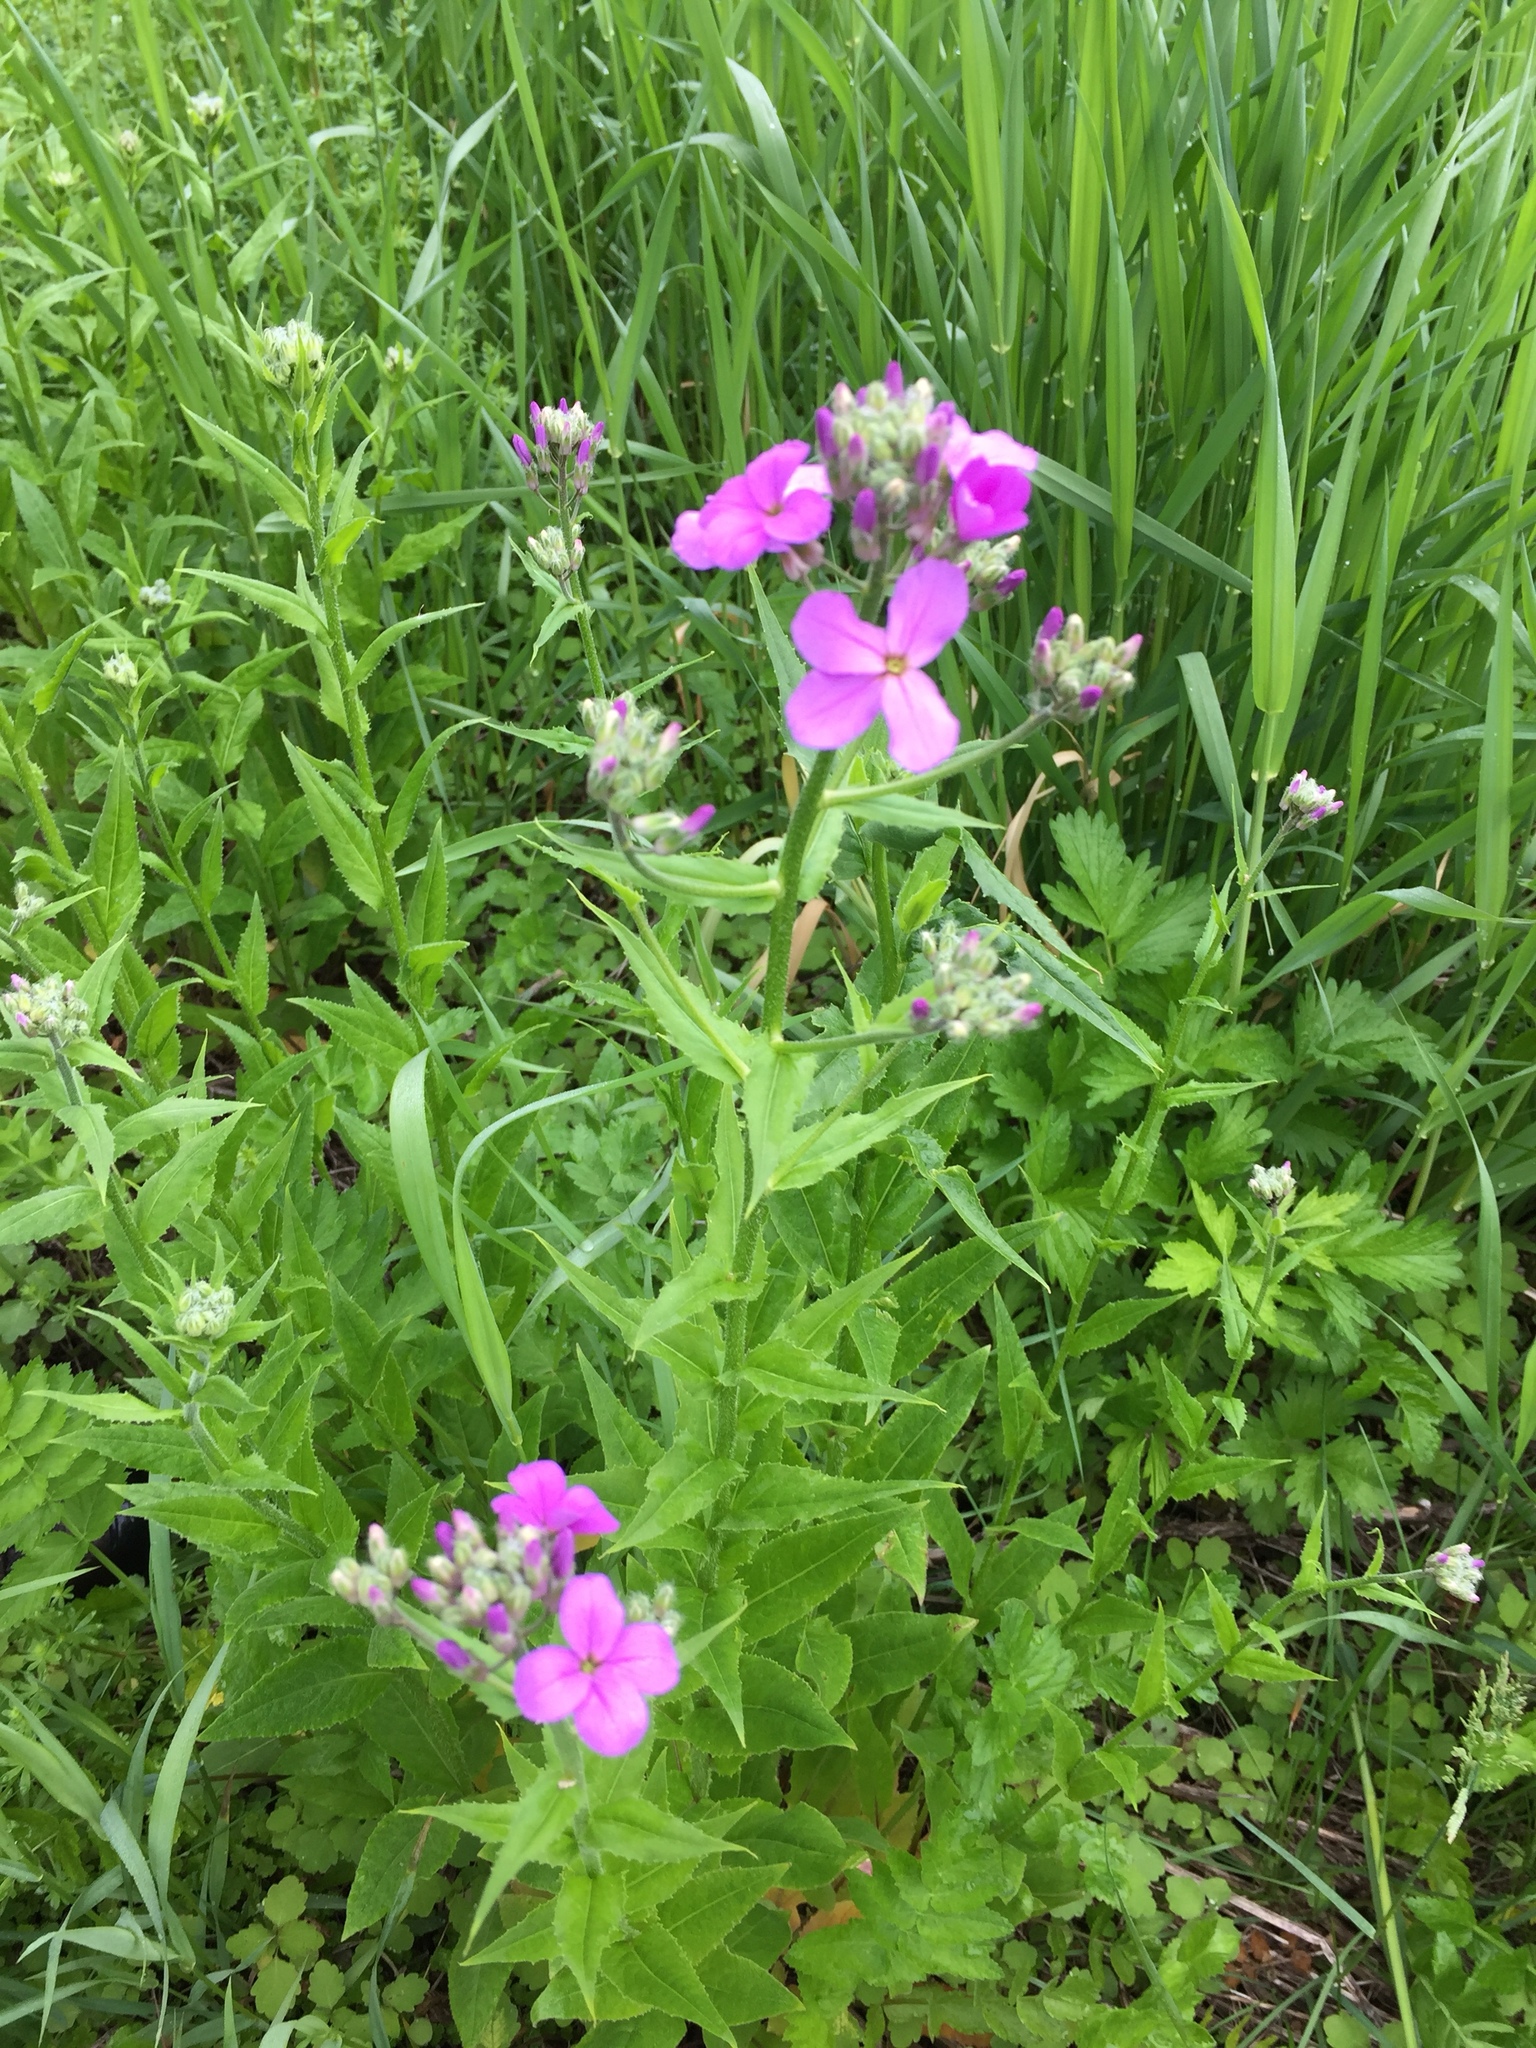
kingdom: Plantae
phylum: Tracheophyta
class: Magnoliopsida
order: Brassicales
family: Brassicaceae
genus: Hesperis
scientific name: Hesperis matronalis
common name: Dame's-violet
